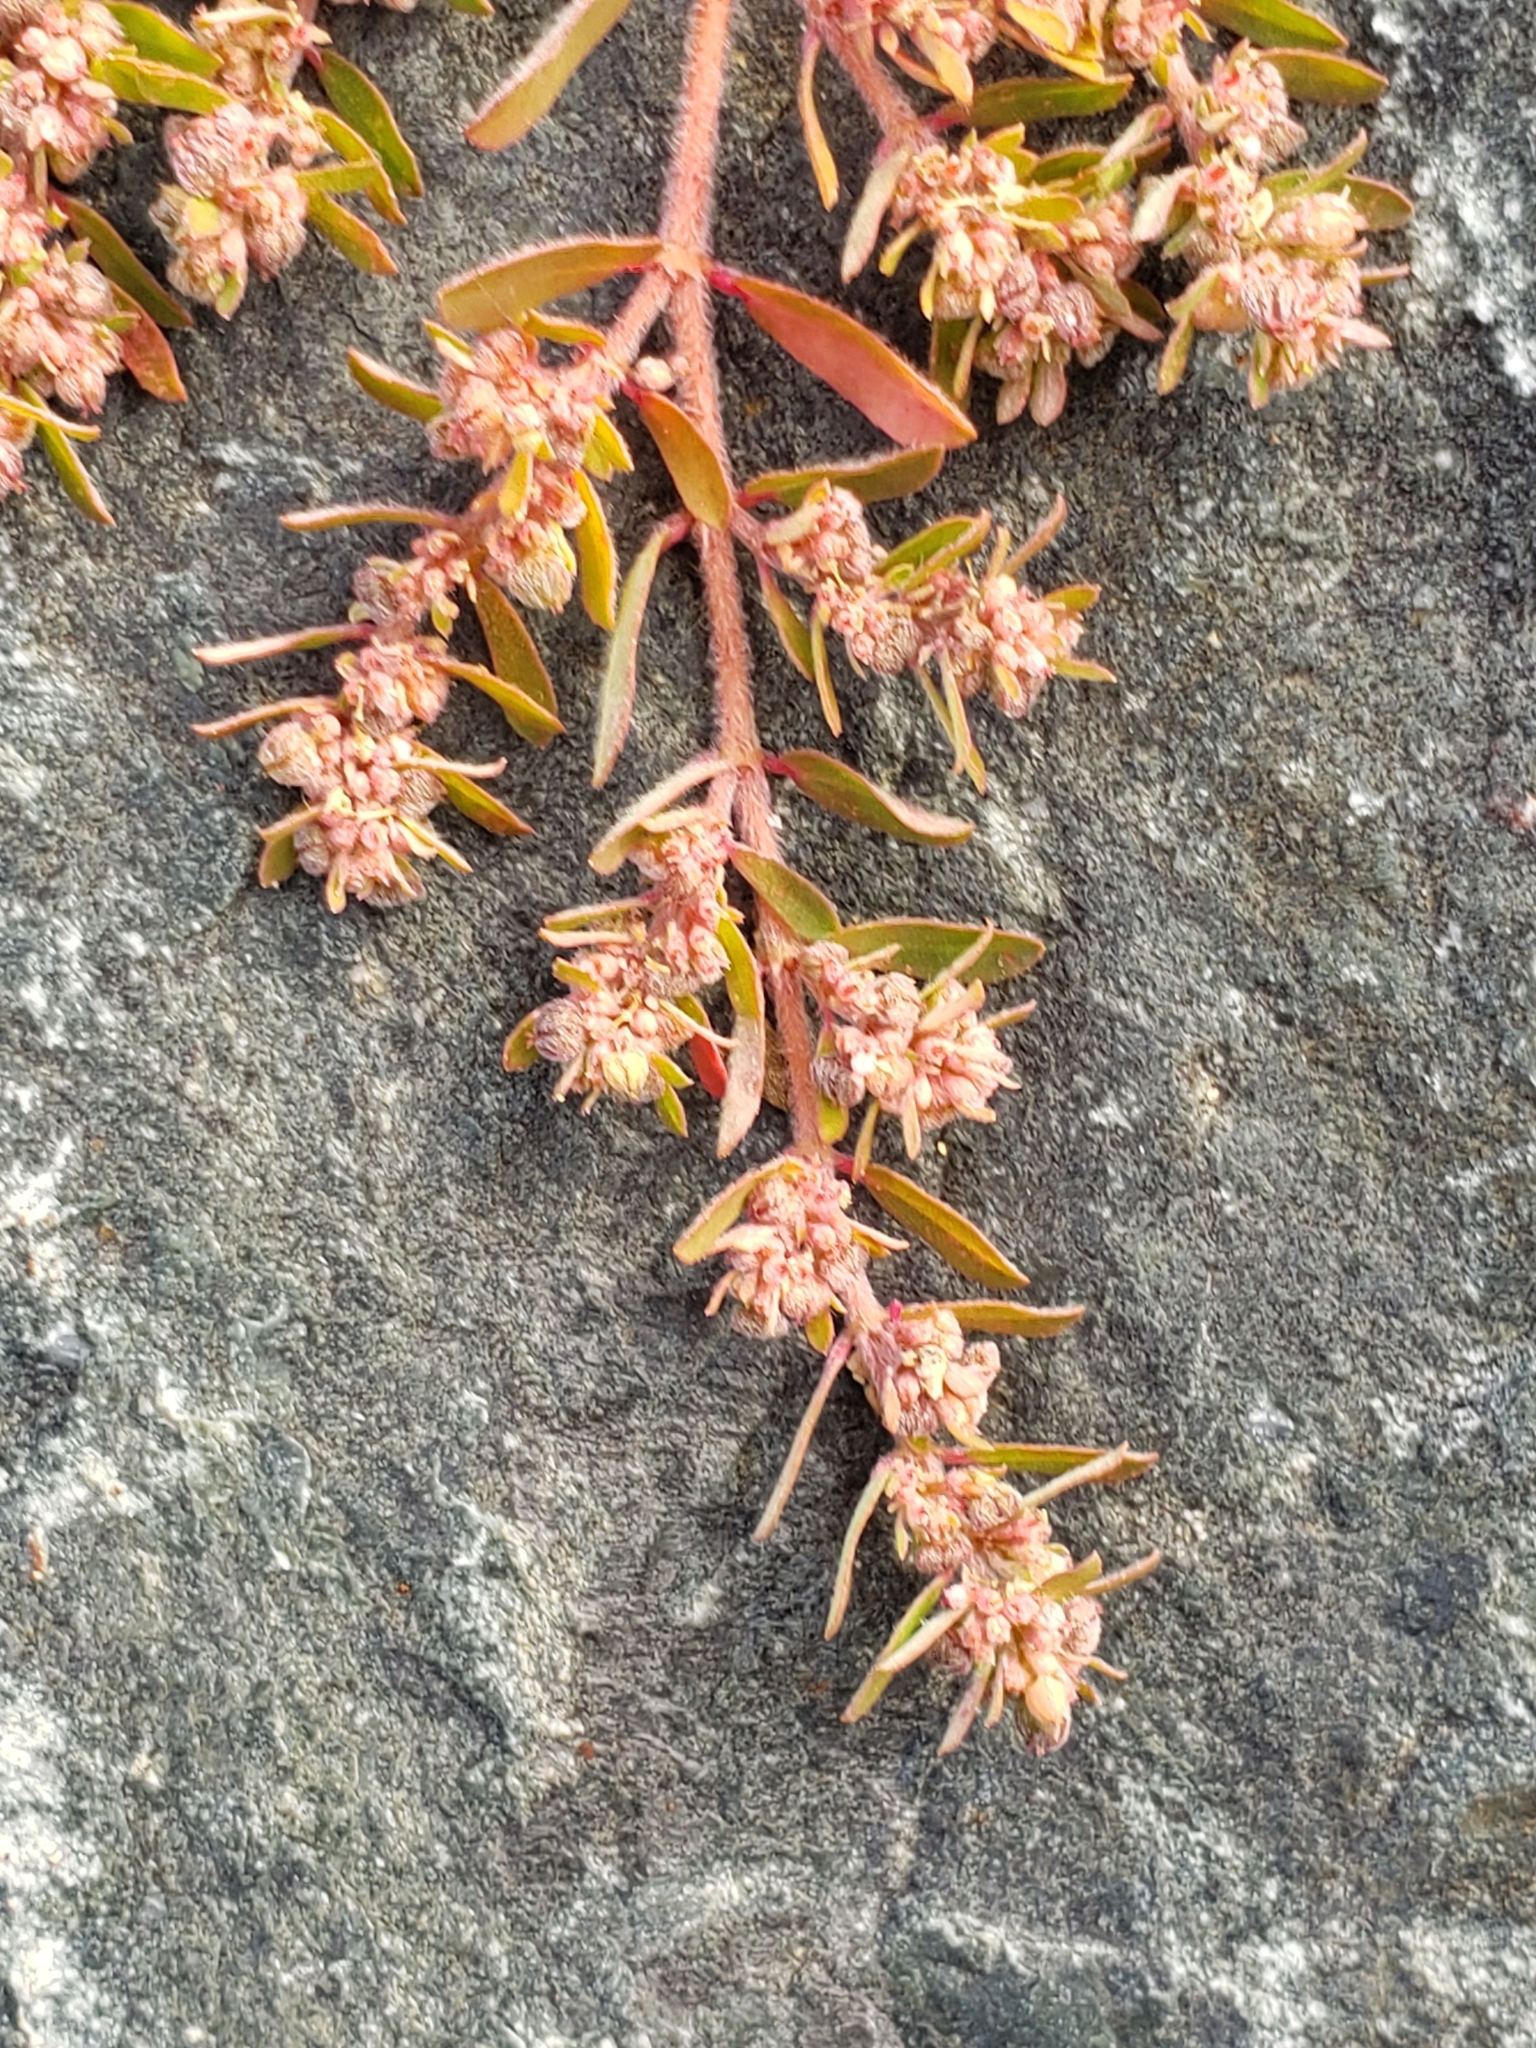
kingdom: Plantae
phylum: Tracheophyta
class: Magnoliopsida
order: Malpighiales
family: Euphorbiaceae
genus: Euphorbia
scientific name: Euphorbia maculata
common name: Spotted spurge
